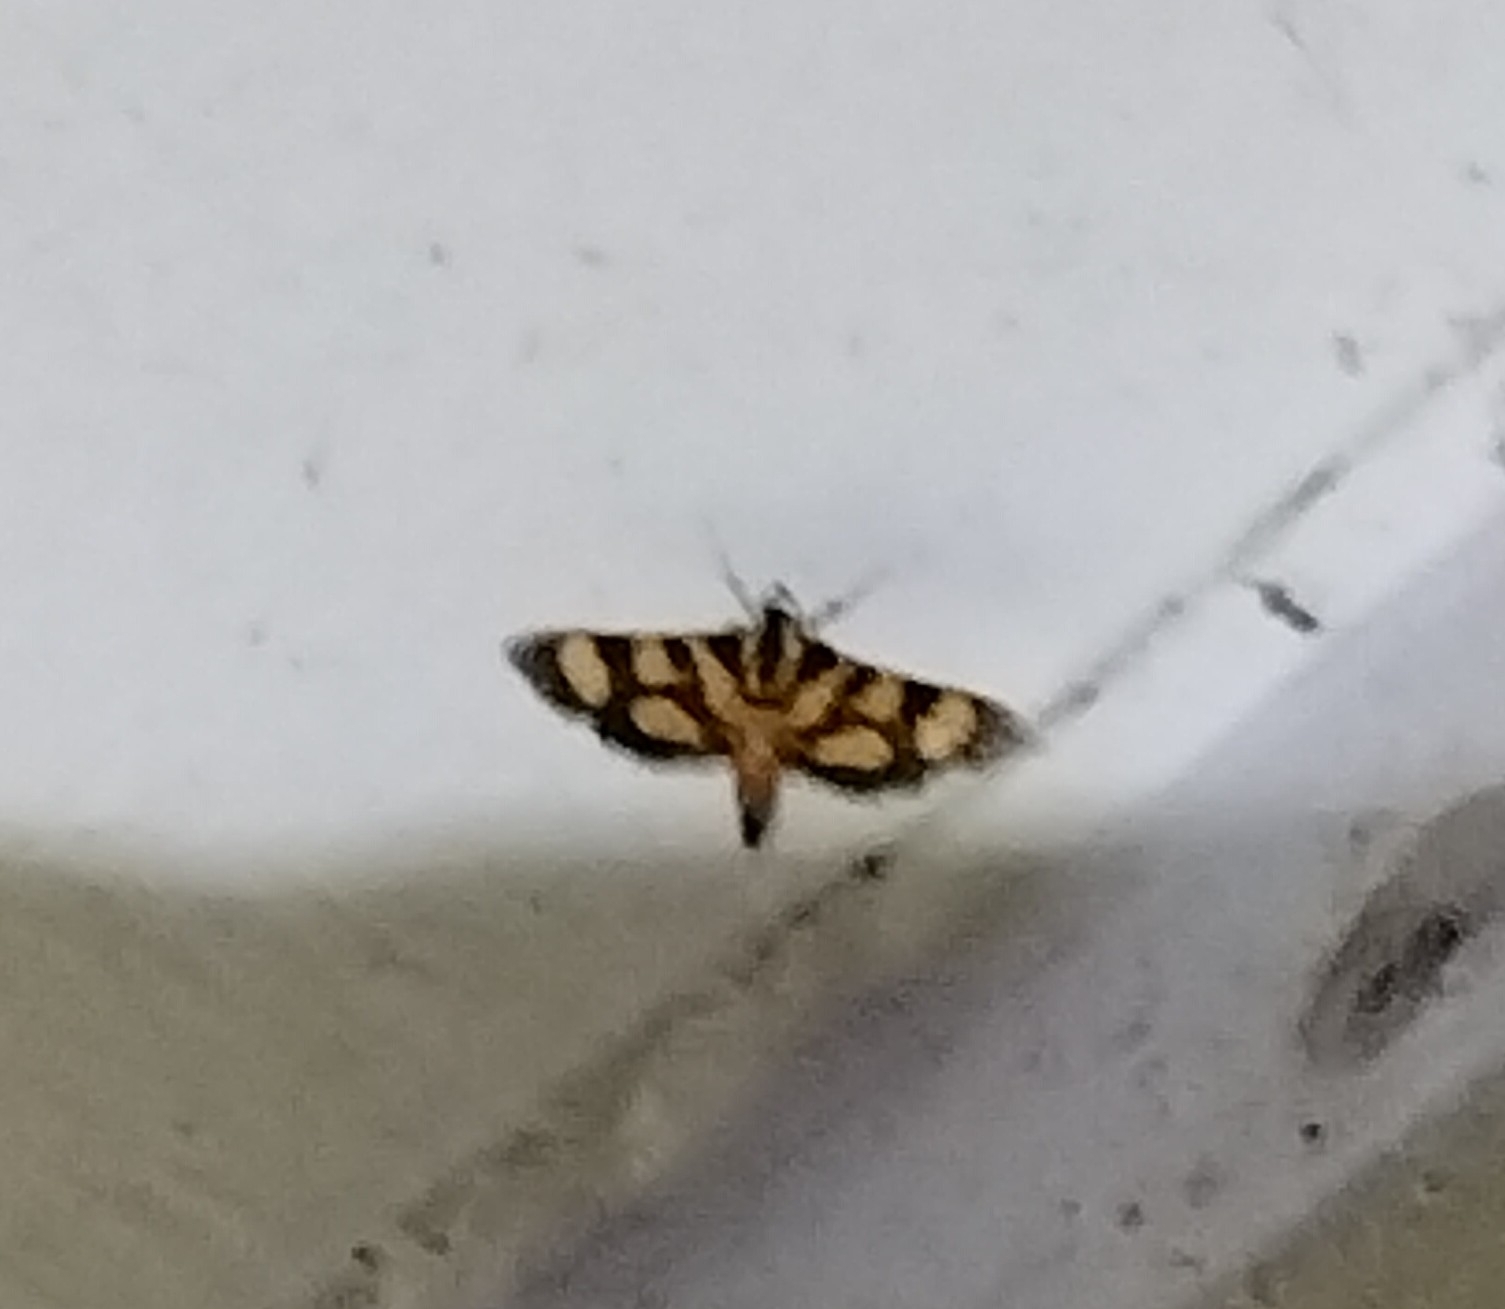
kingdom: Animalia
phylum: Arthropoda
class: Insecta
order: Lepidoptera
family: Crambidae
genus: Syngamia
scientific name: Syngamia florella
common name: Orange-spotted flower moth
